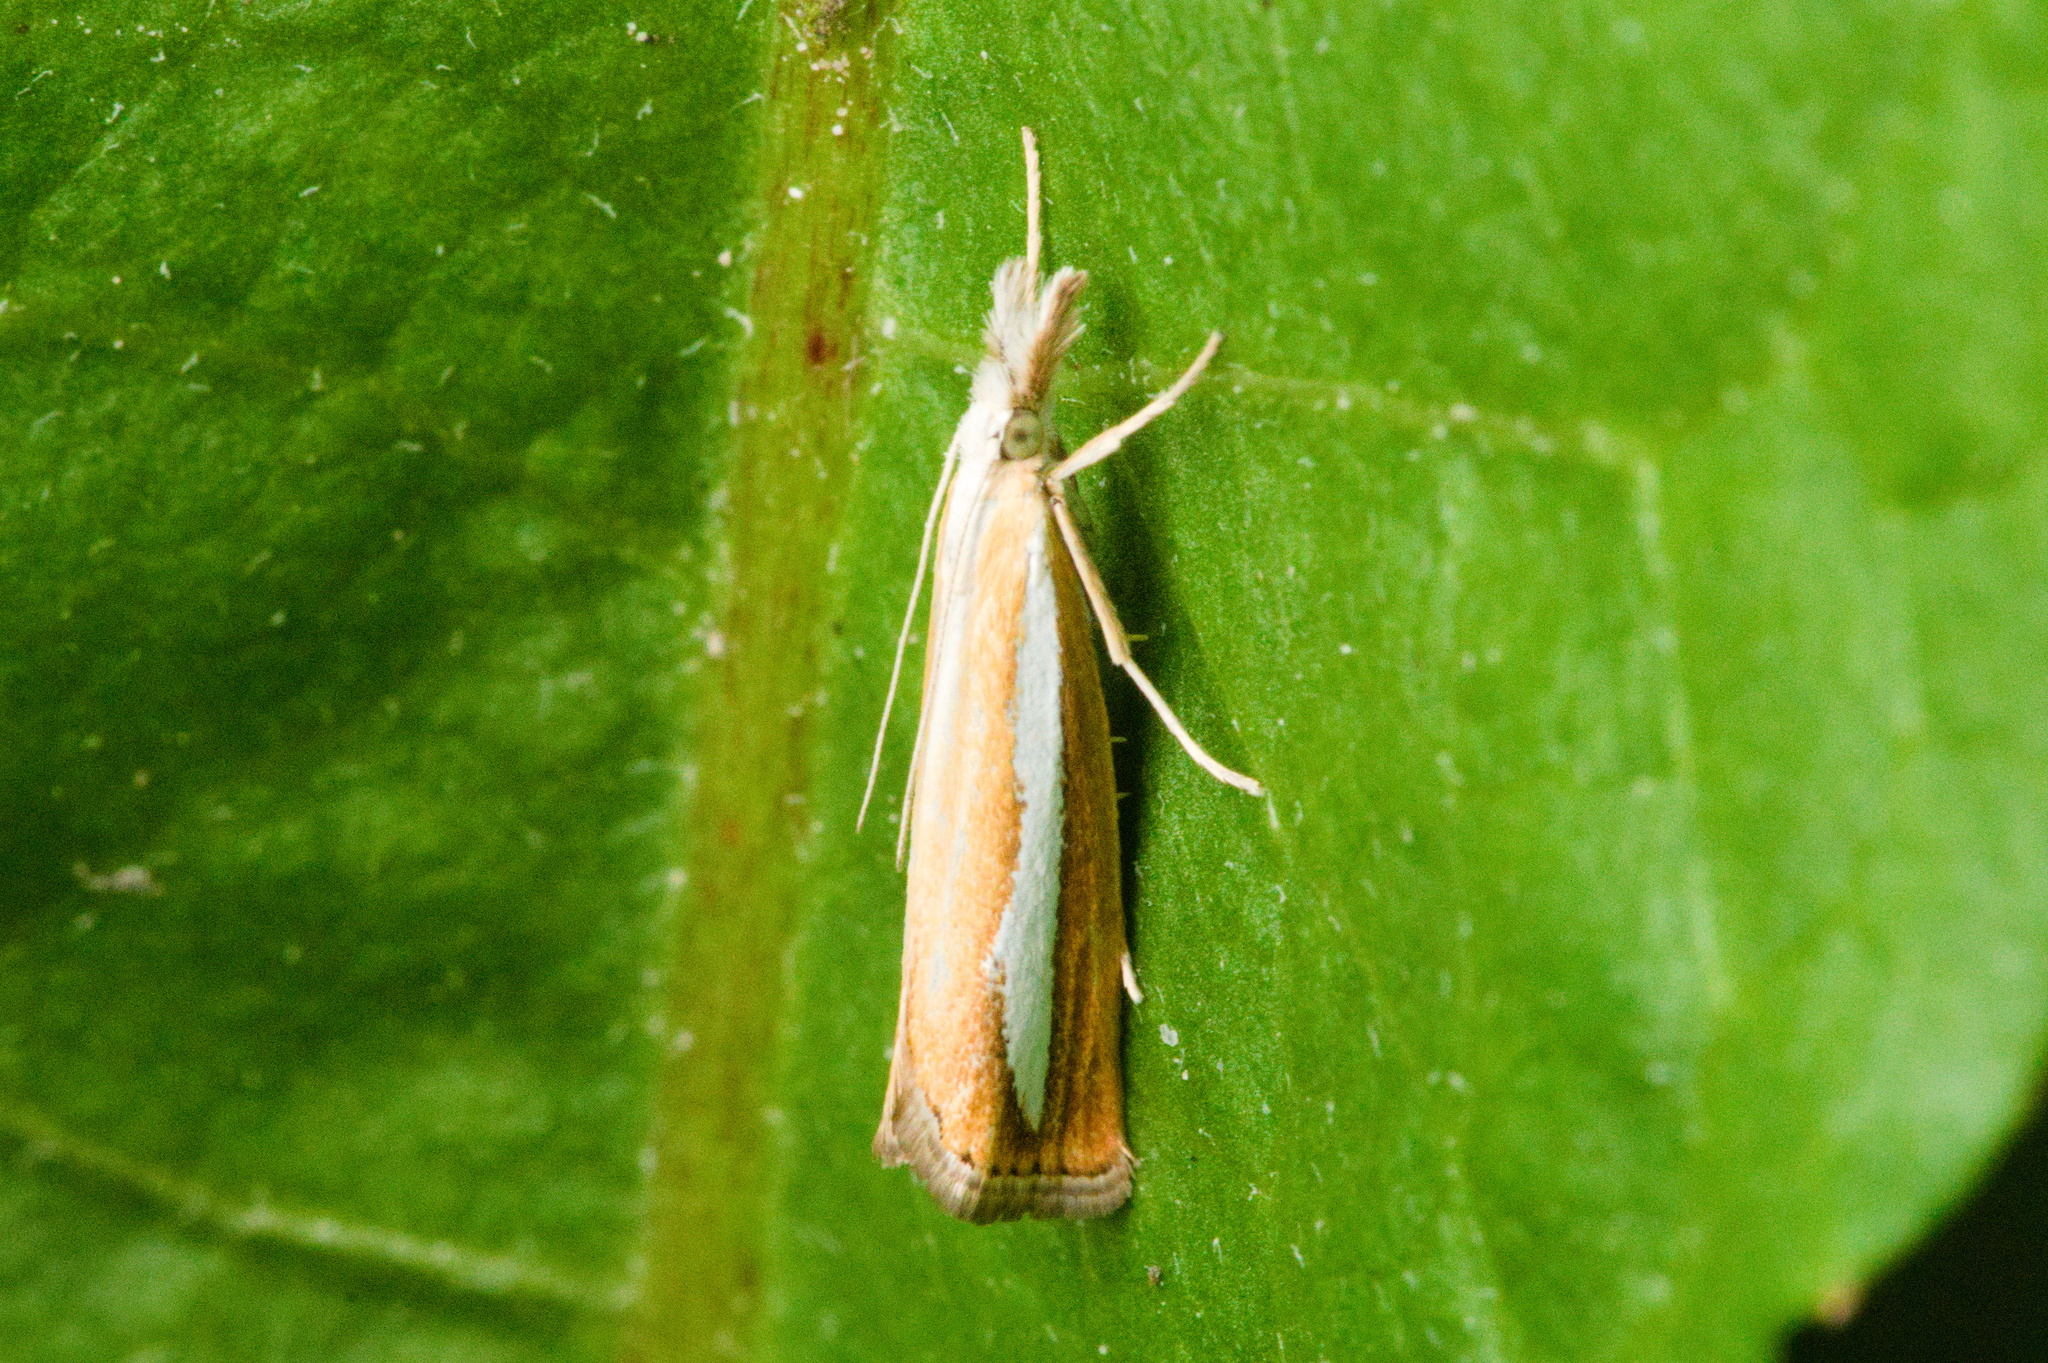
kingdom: Animalia
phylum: Arthropoda
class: Insecta
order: Lepidoptera
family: Crambidae
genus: Catoptria
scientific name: Catoptria margaritellus
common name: Pearl-band grass veneer
